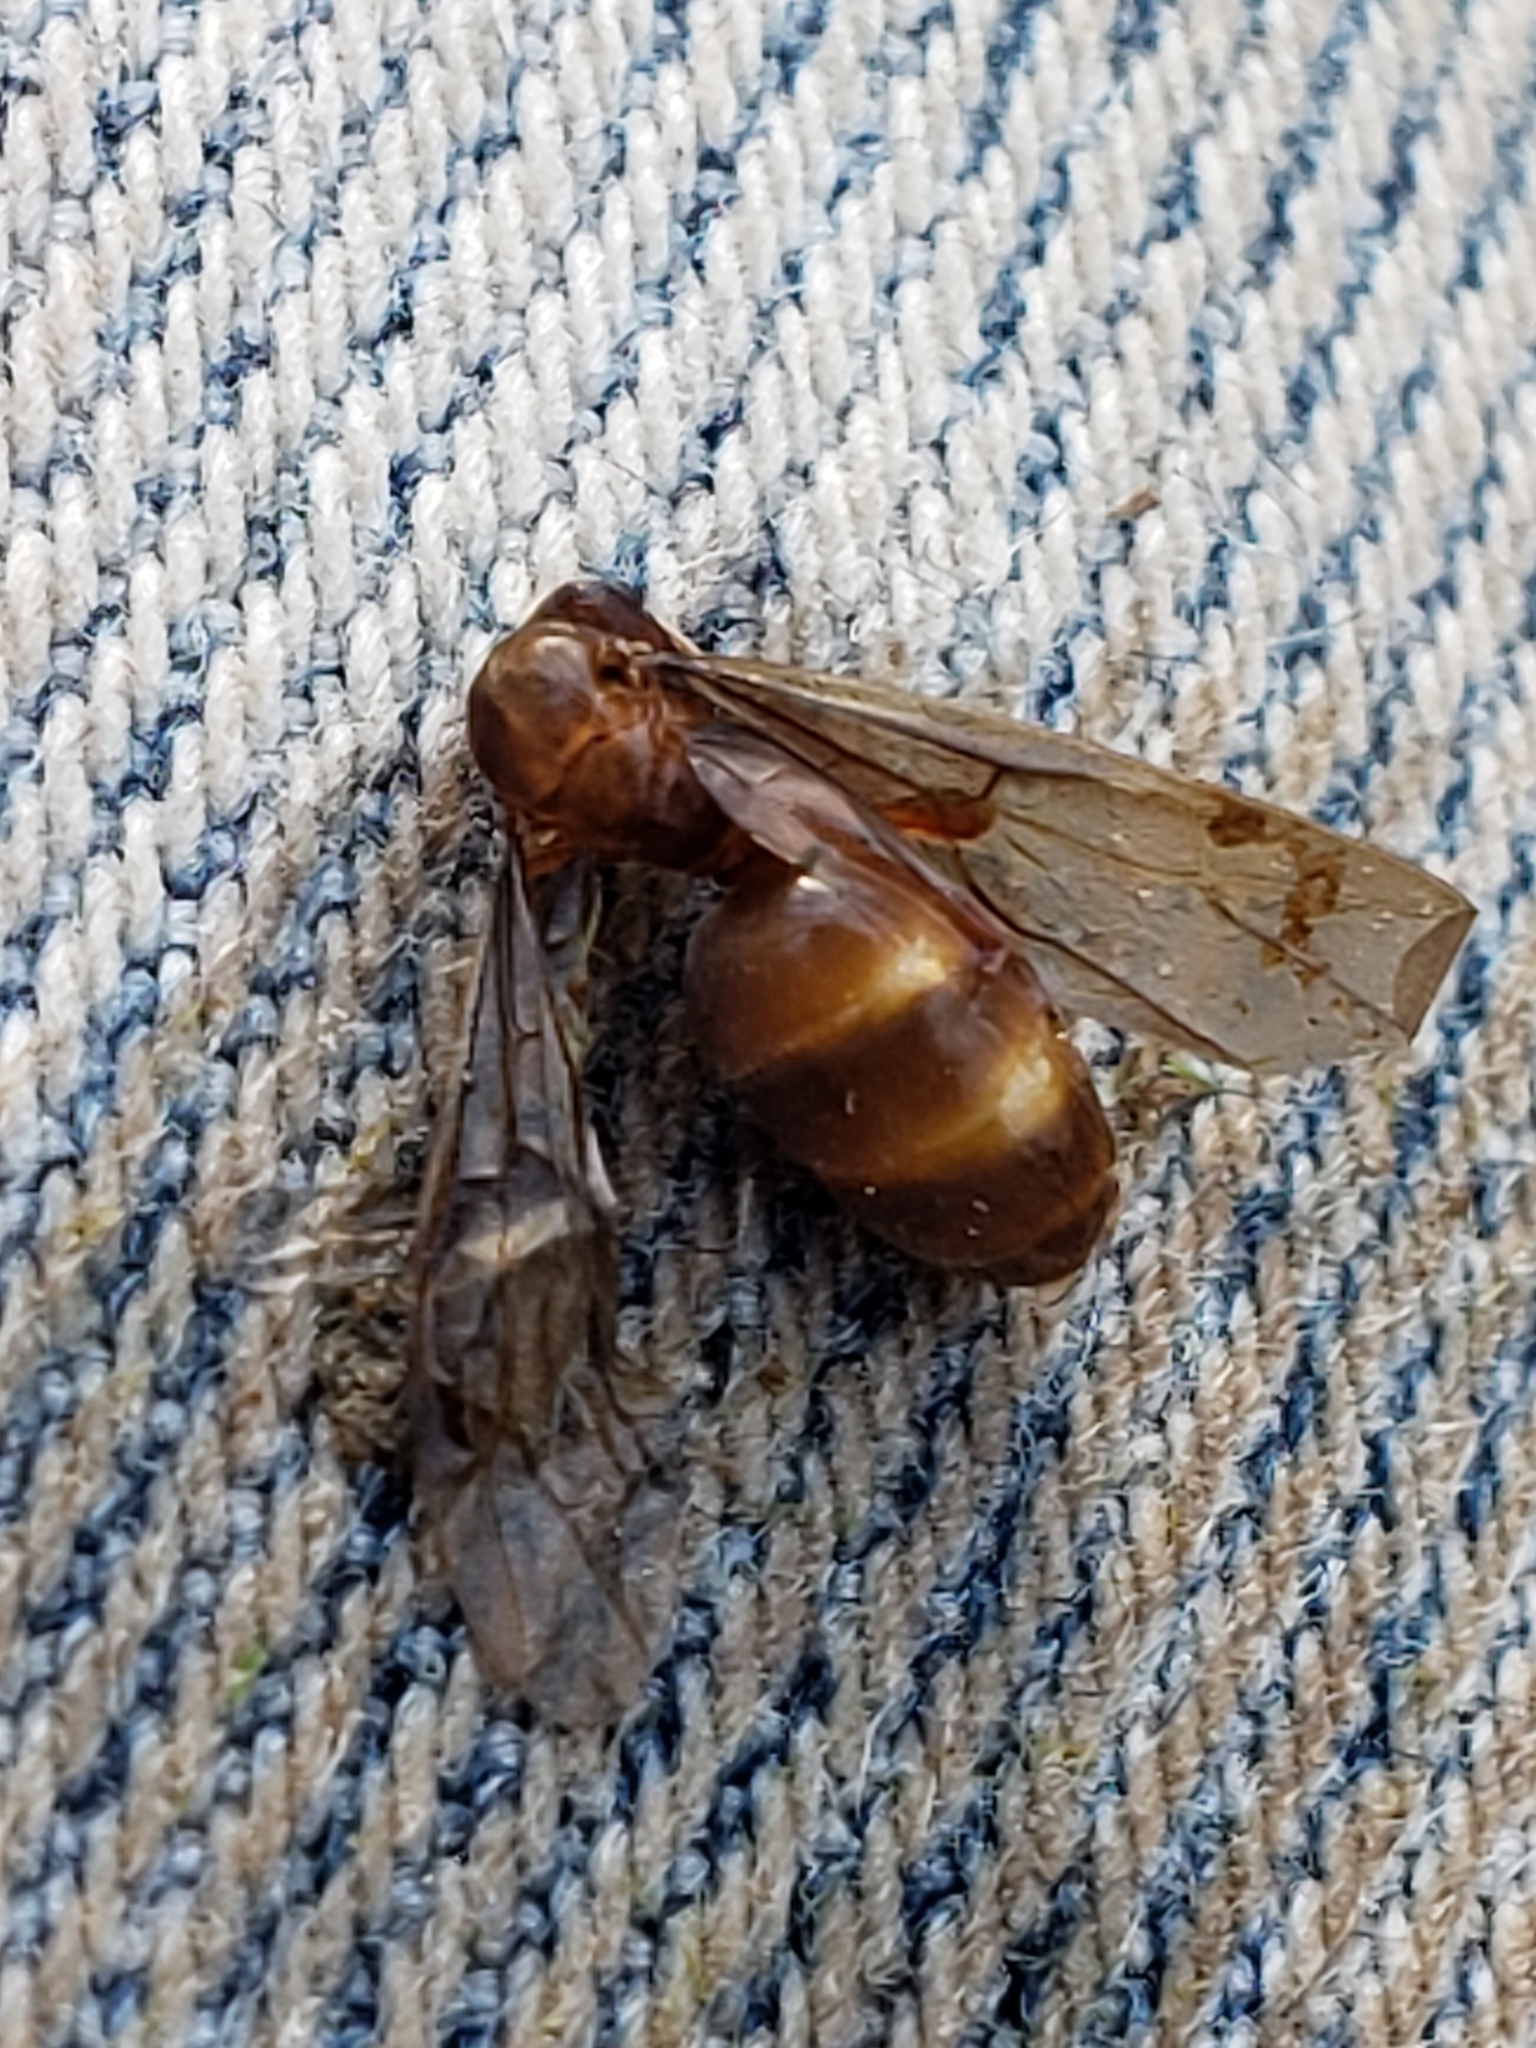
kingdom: Animalia
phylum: Arthropoda
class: Insecta
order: Hymenoptera
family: Formicidae
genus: Prenolepis
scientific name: Prenolepis imparis
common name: Small honey ant
